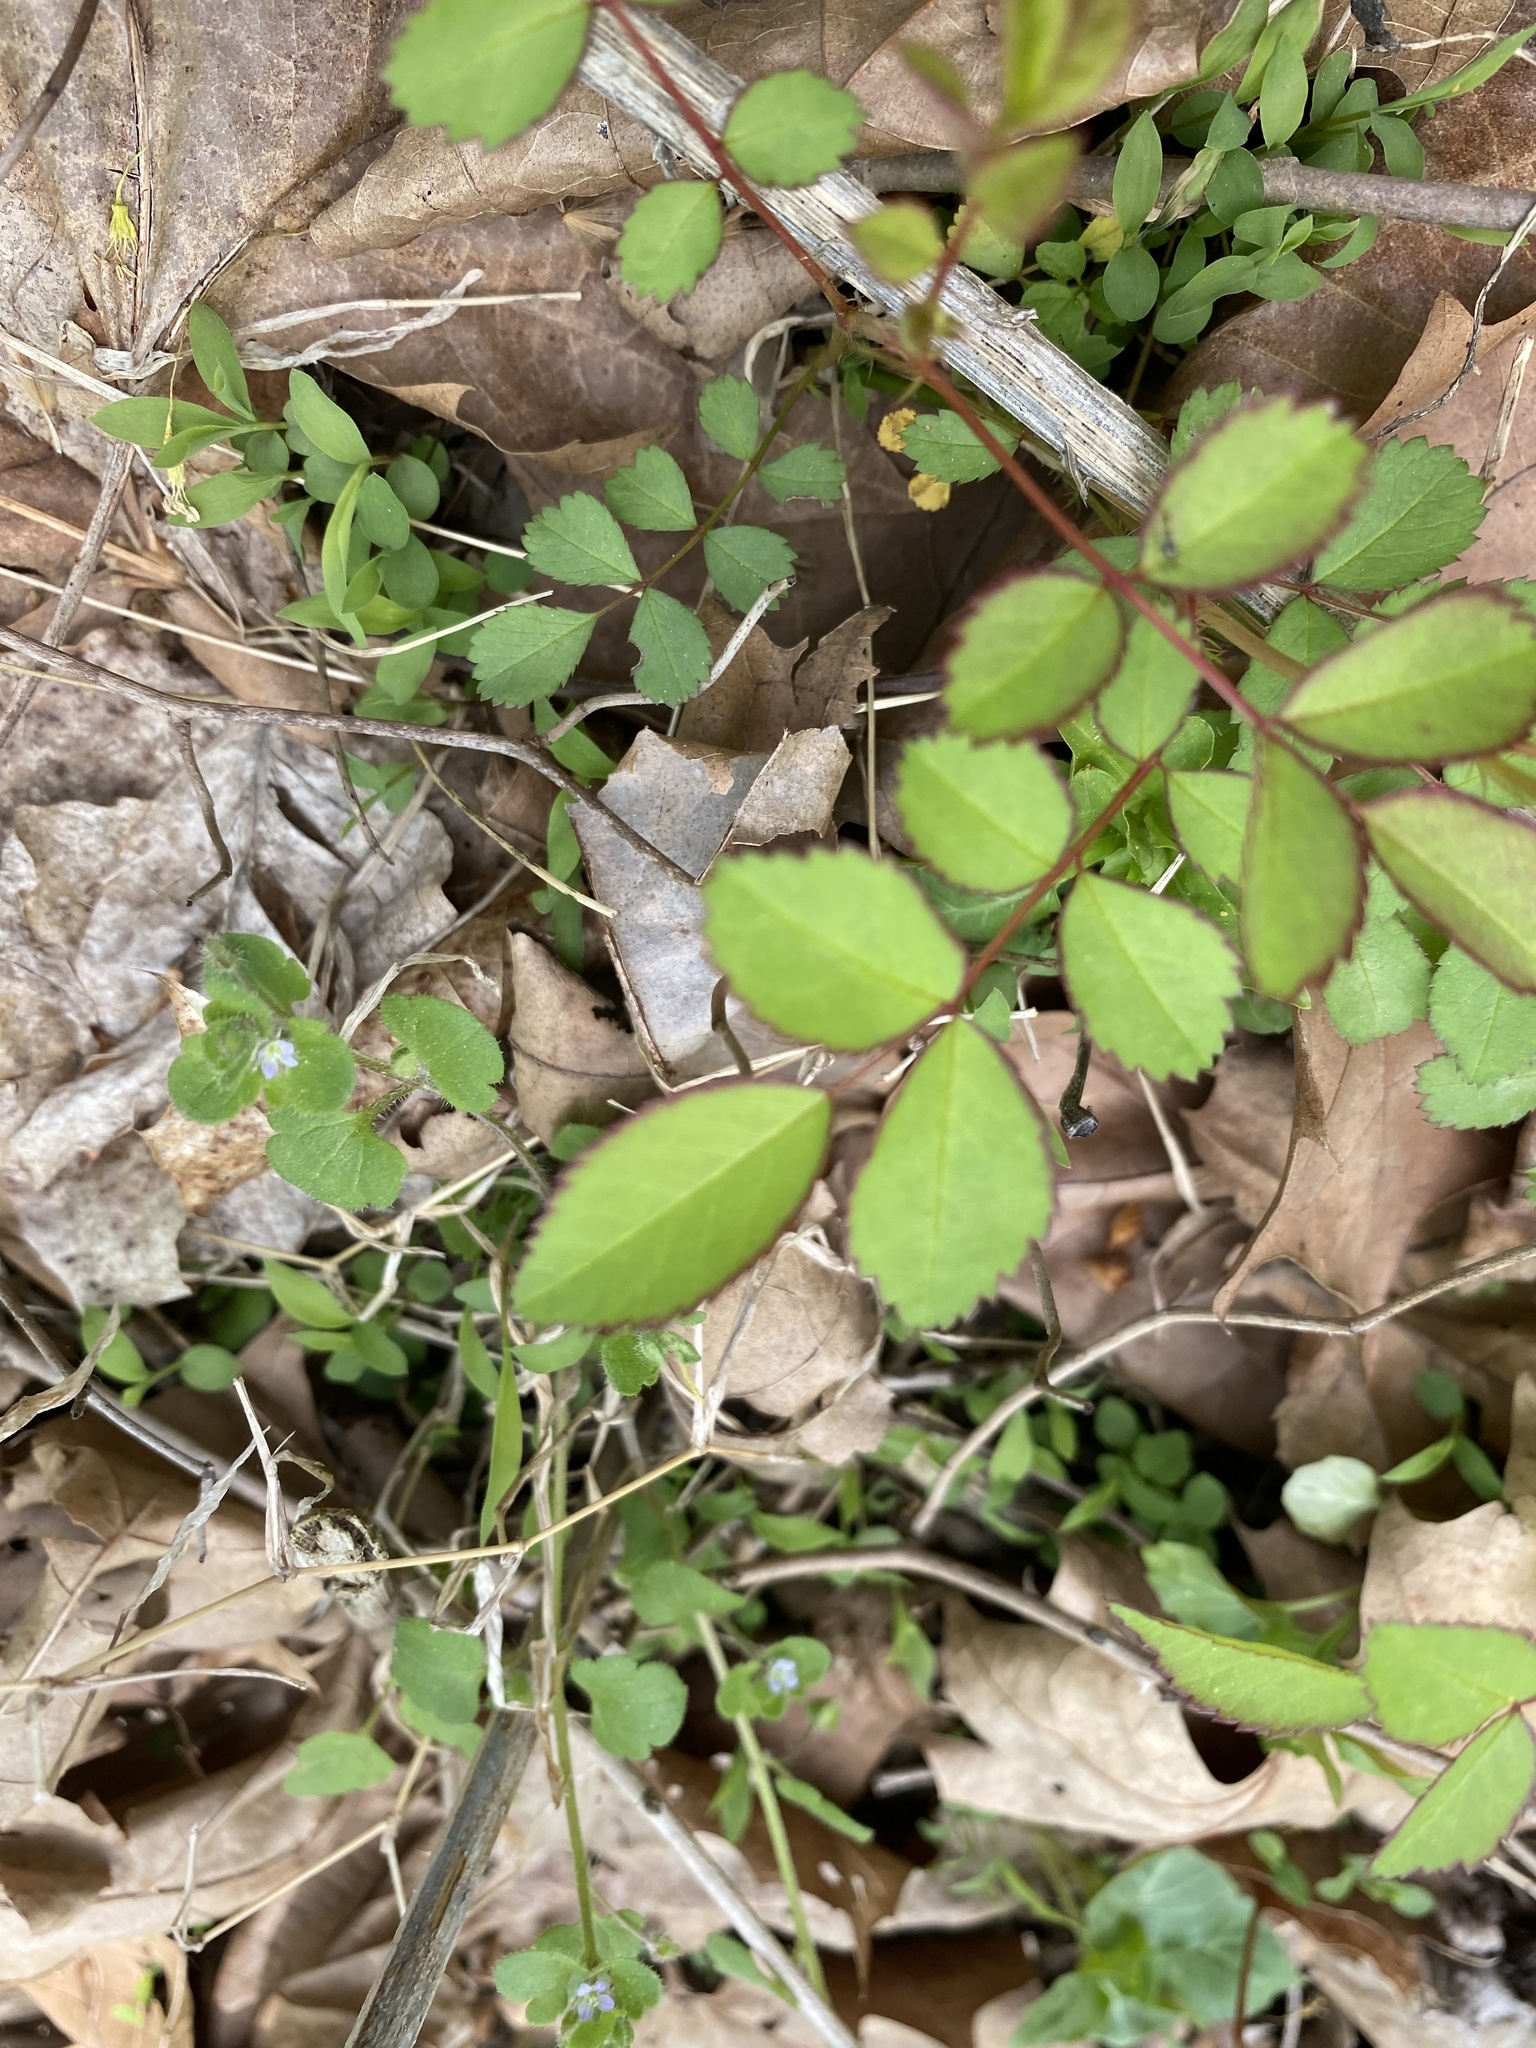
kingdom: Plantae
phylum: Tracheophyta
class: Magnoliopsida
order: Rosales
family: Rosaceae
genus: Rosa
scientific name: Rosa multiflora
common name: Multiflora rose
